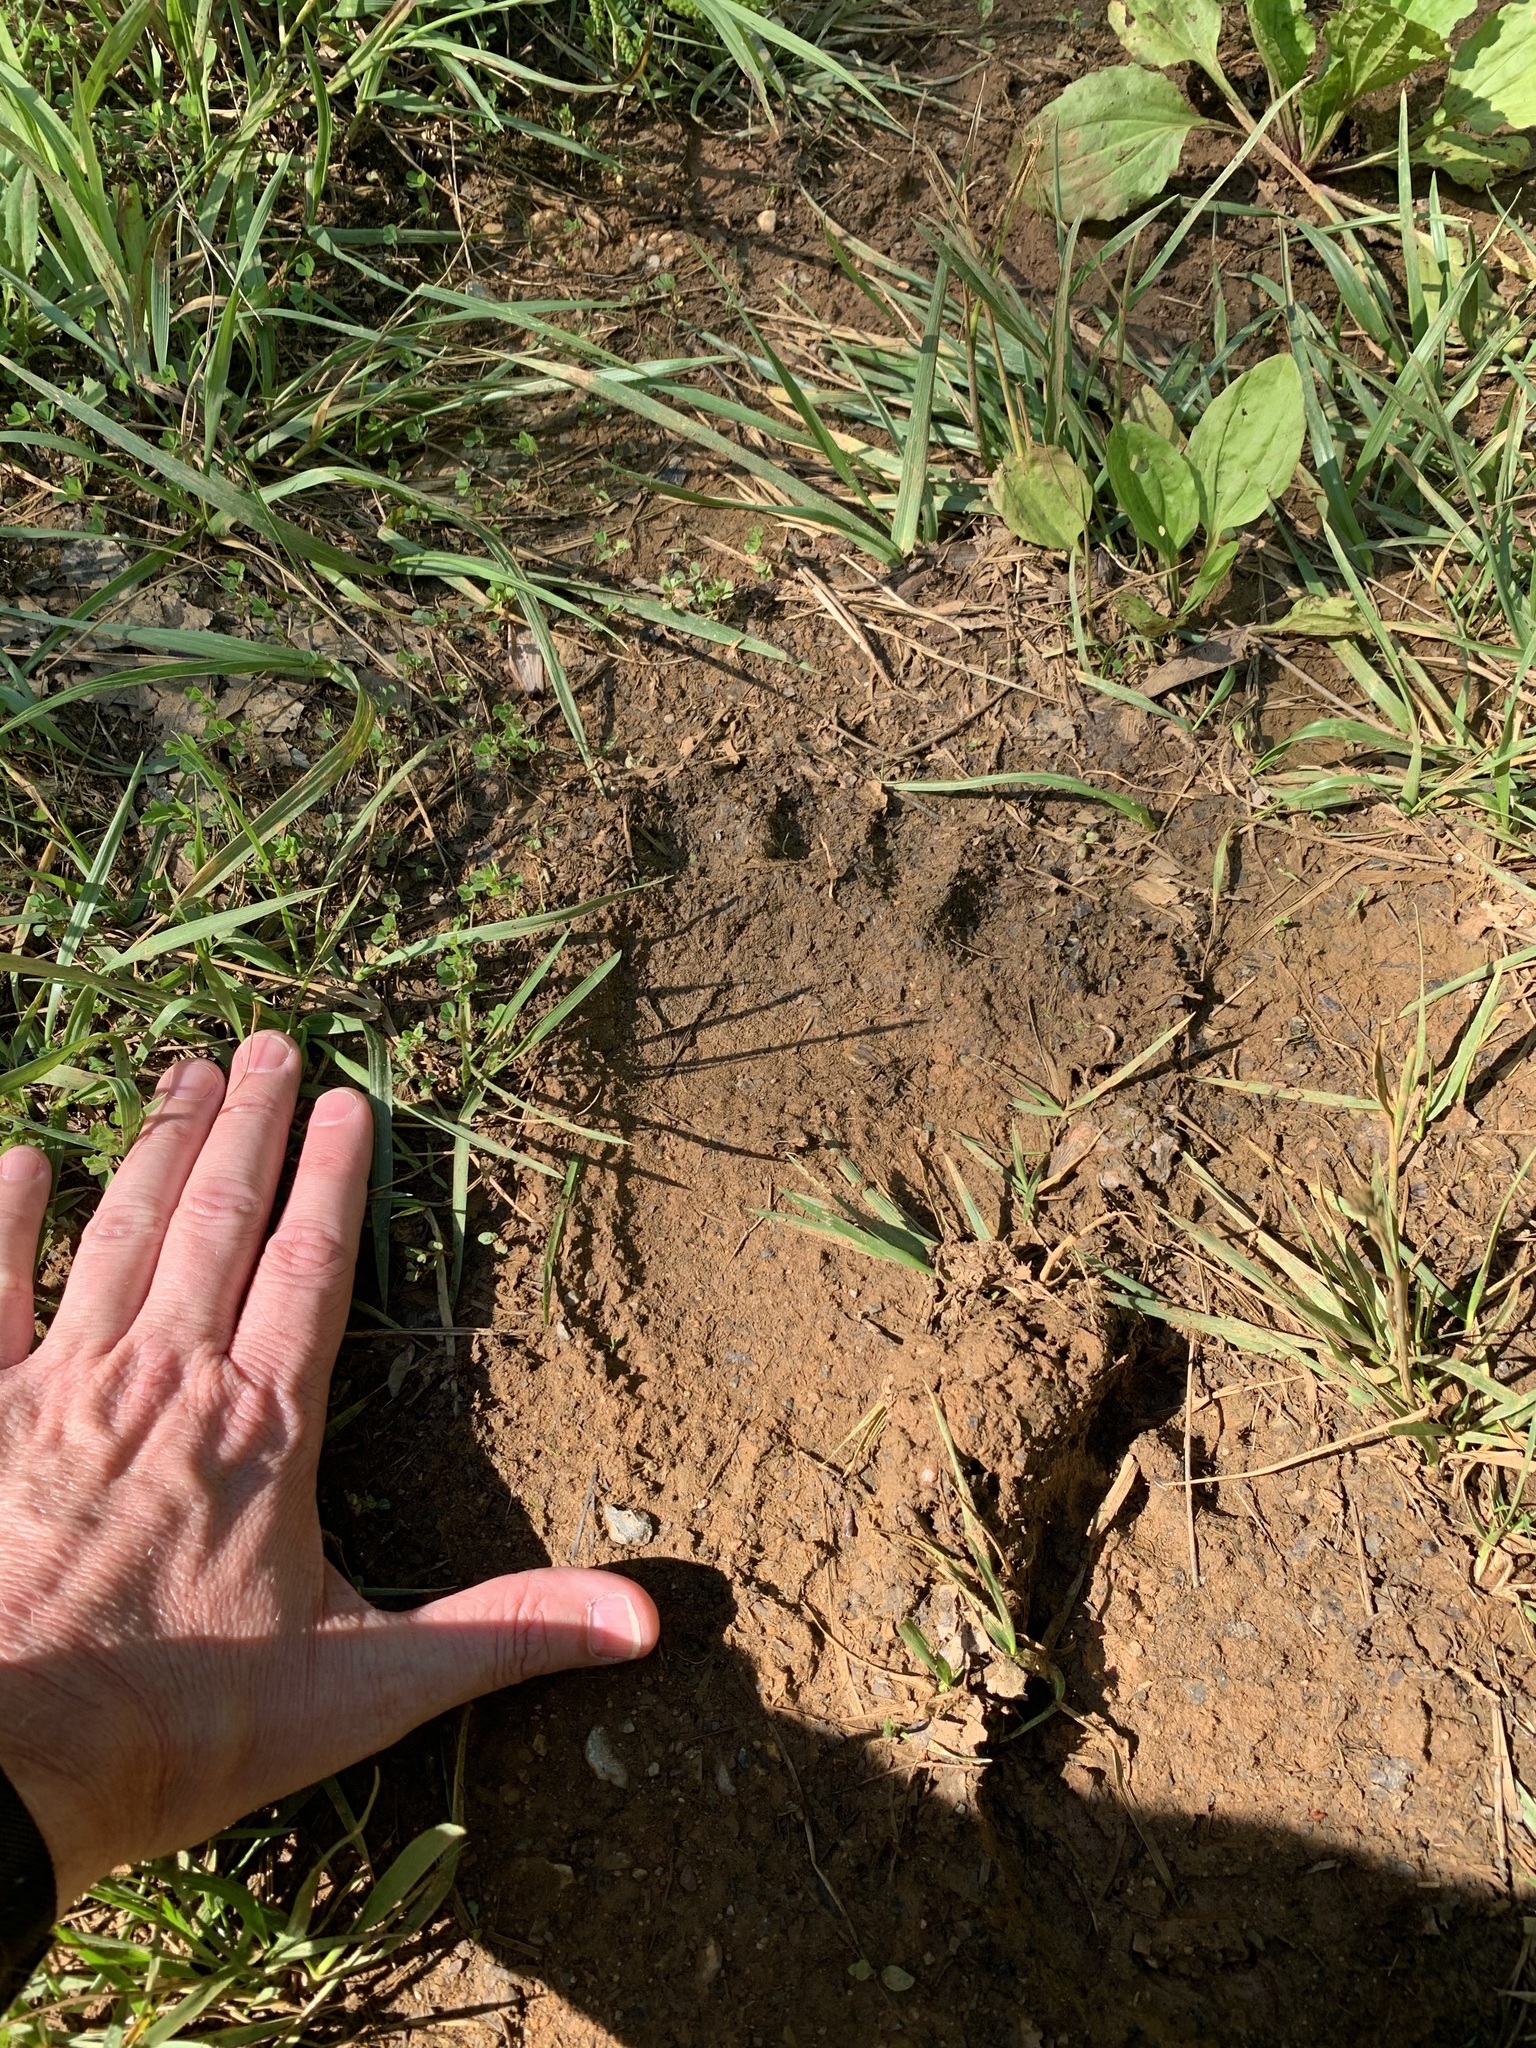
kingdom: Animalia
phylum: Chordata
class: Mammalia
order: Carnivora
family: Ursidae
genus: Ursus
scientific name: Ursus americanus
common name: American black bear
